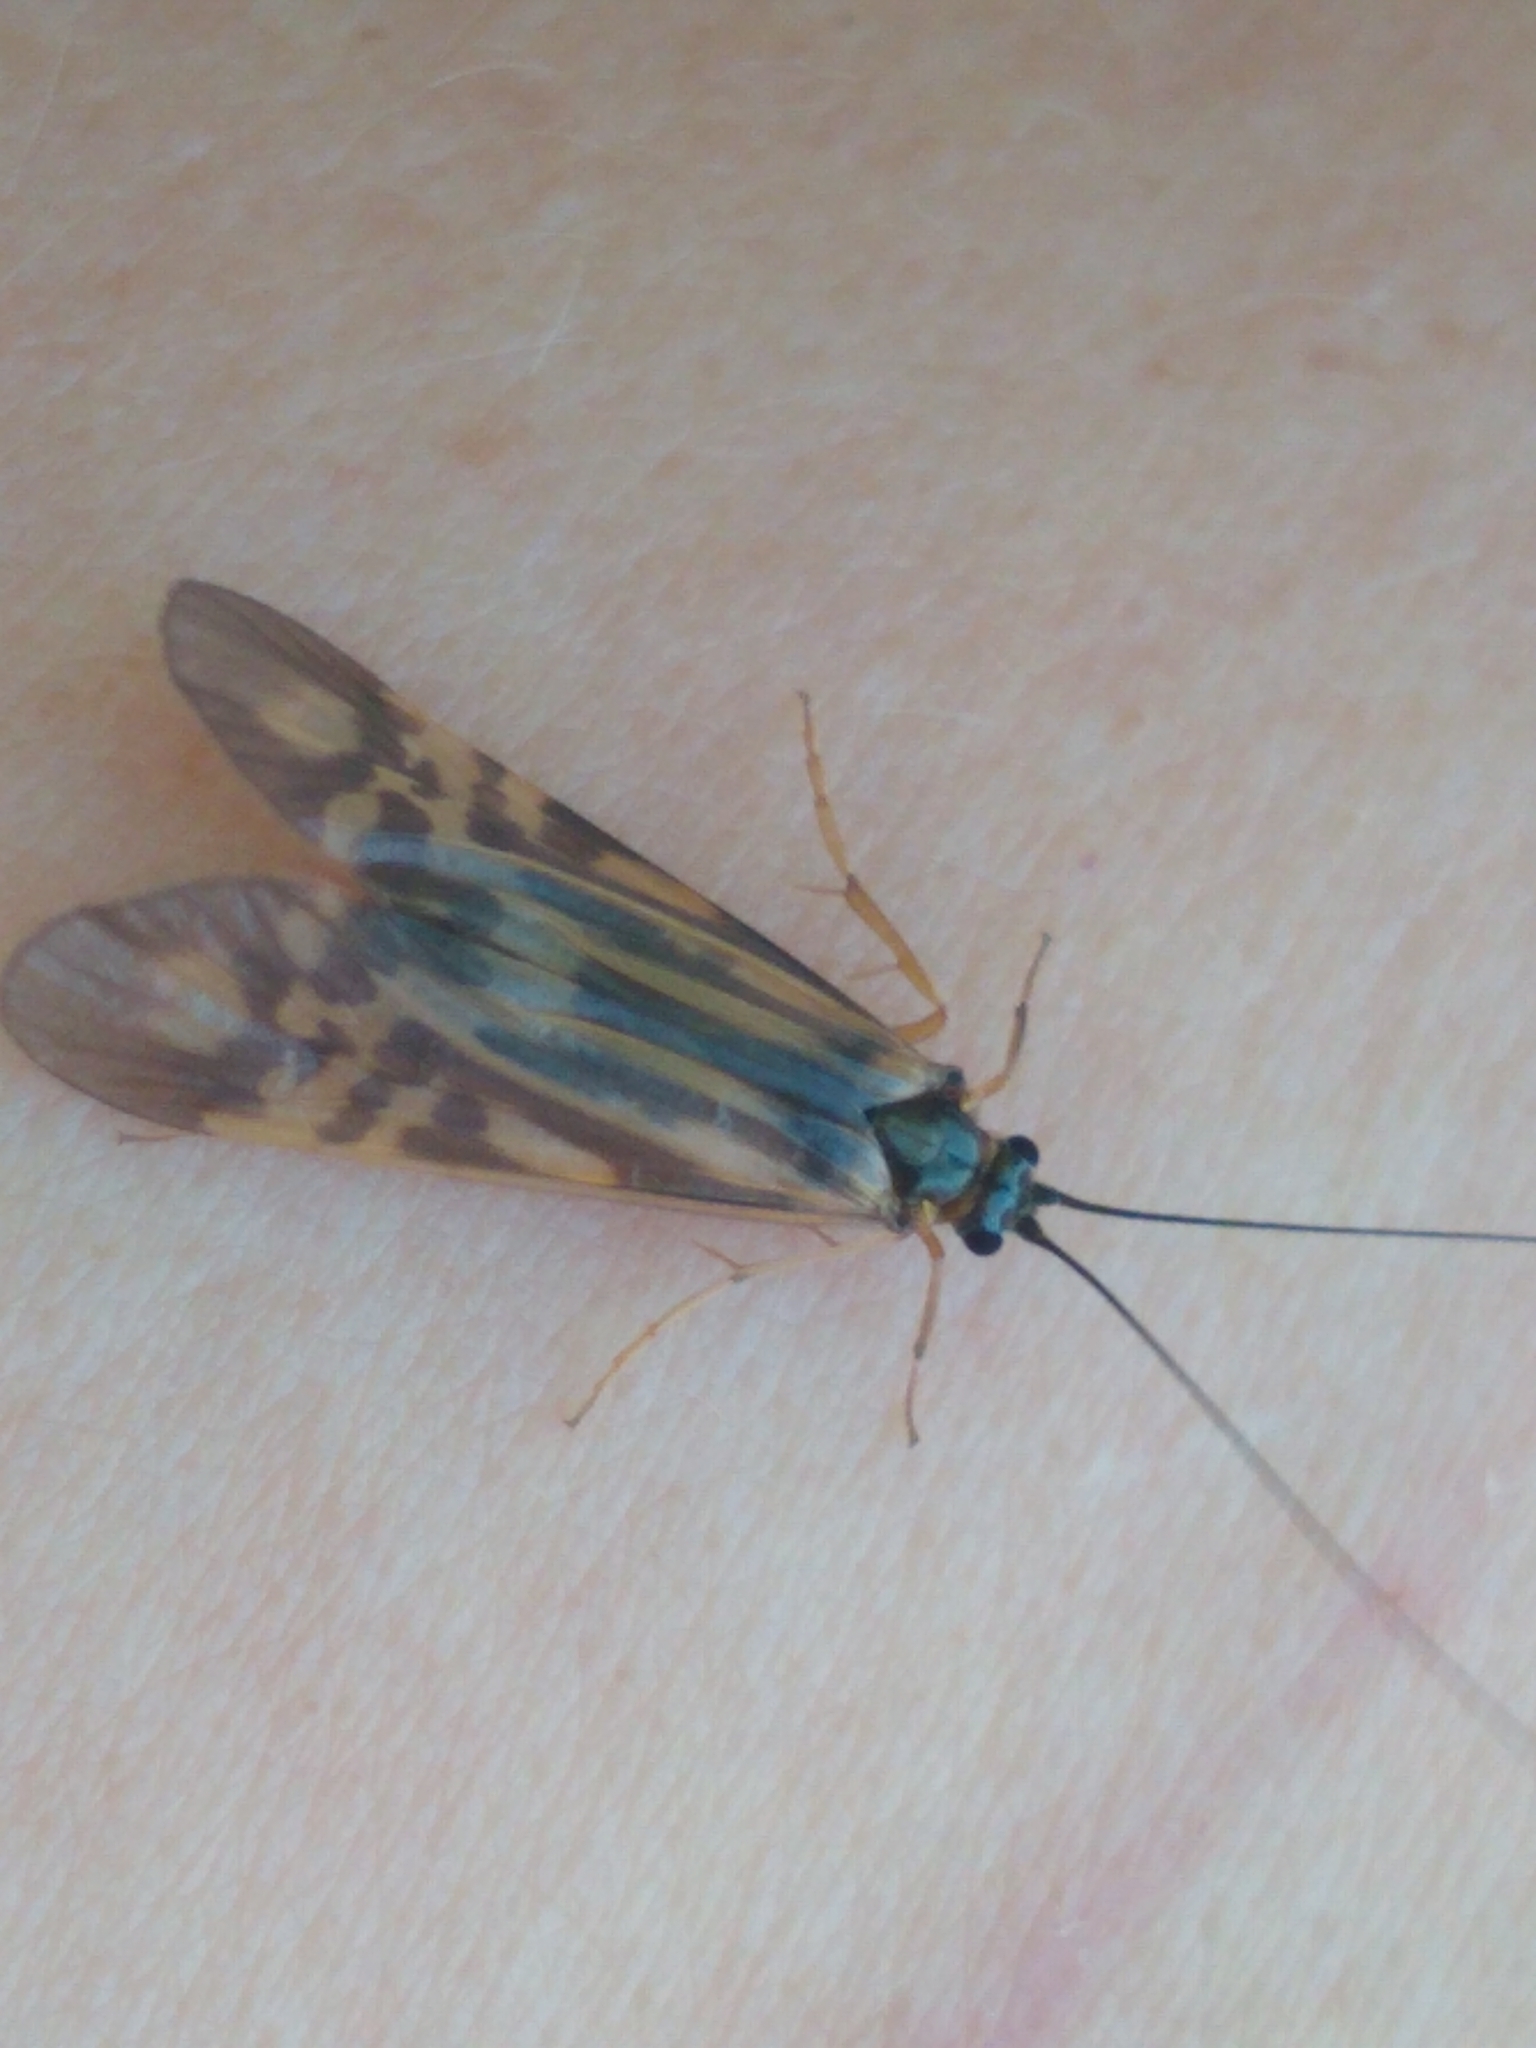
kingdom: Animalia
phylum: Arthropoda
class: Insecta
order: Trichoptera
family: Hydropsychidae
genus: Macrostemum
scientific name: Macrostemum zebratum
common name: Zebra caddisfly
